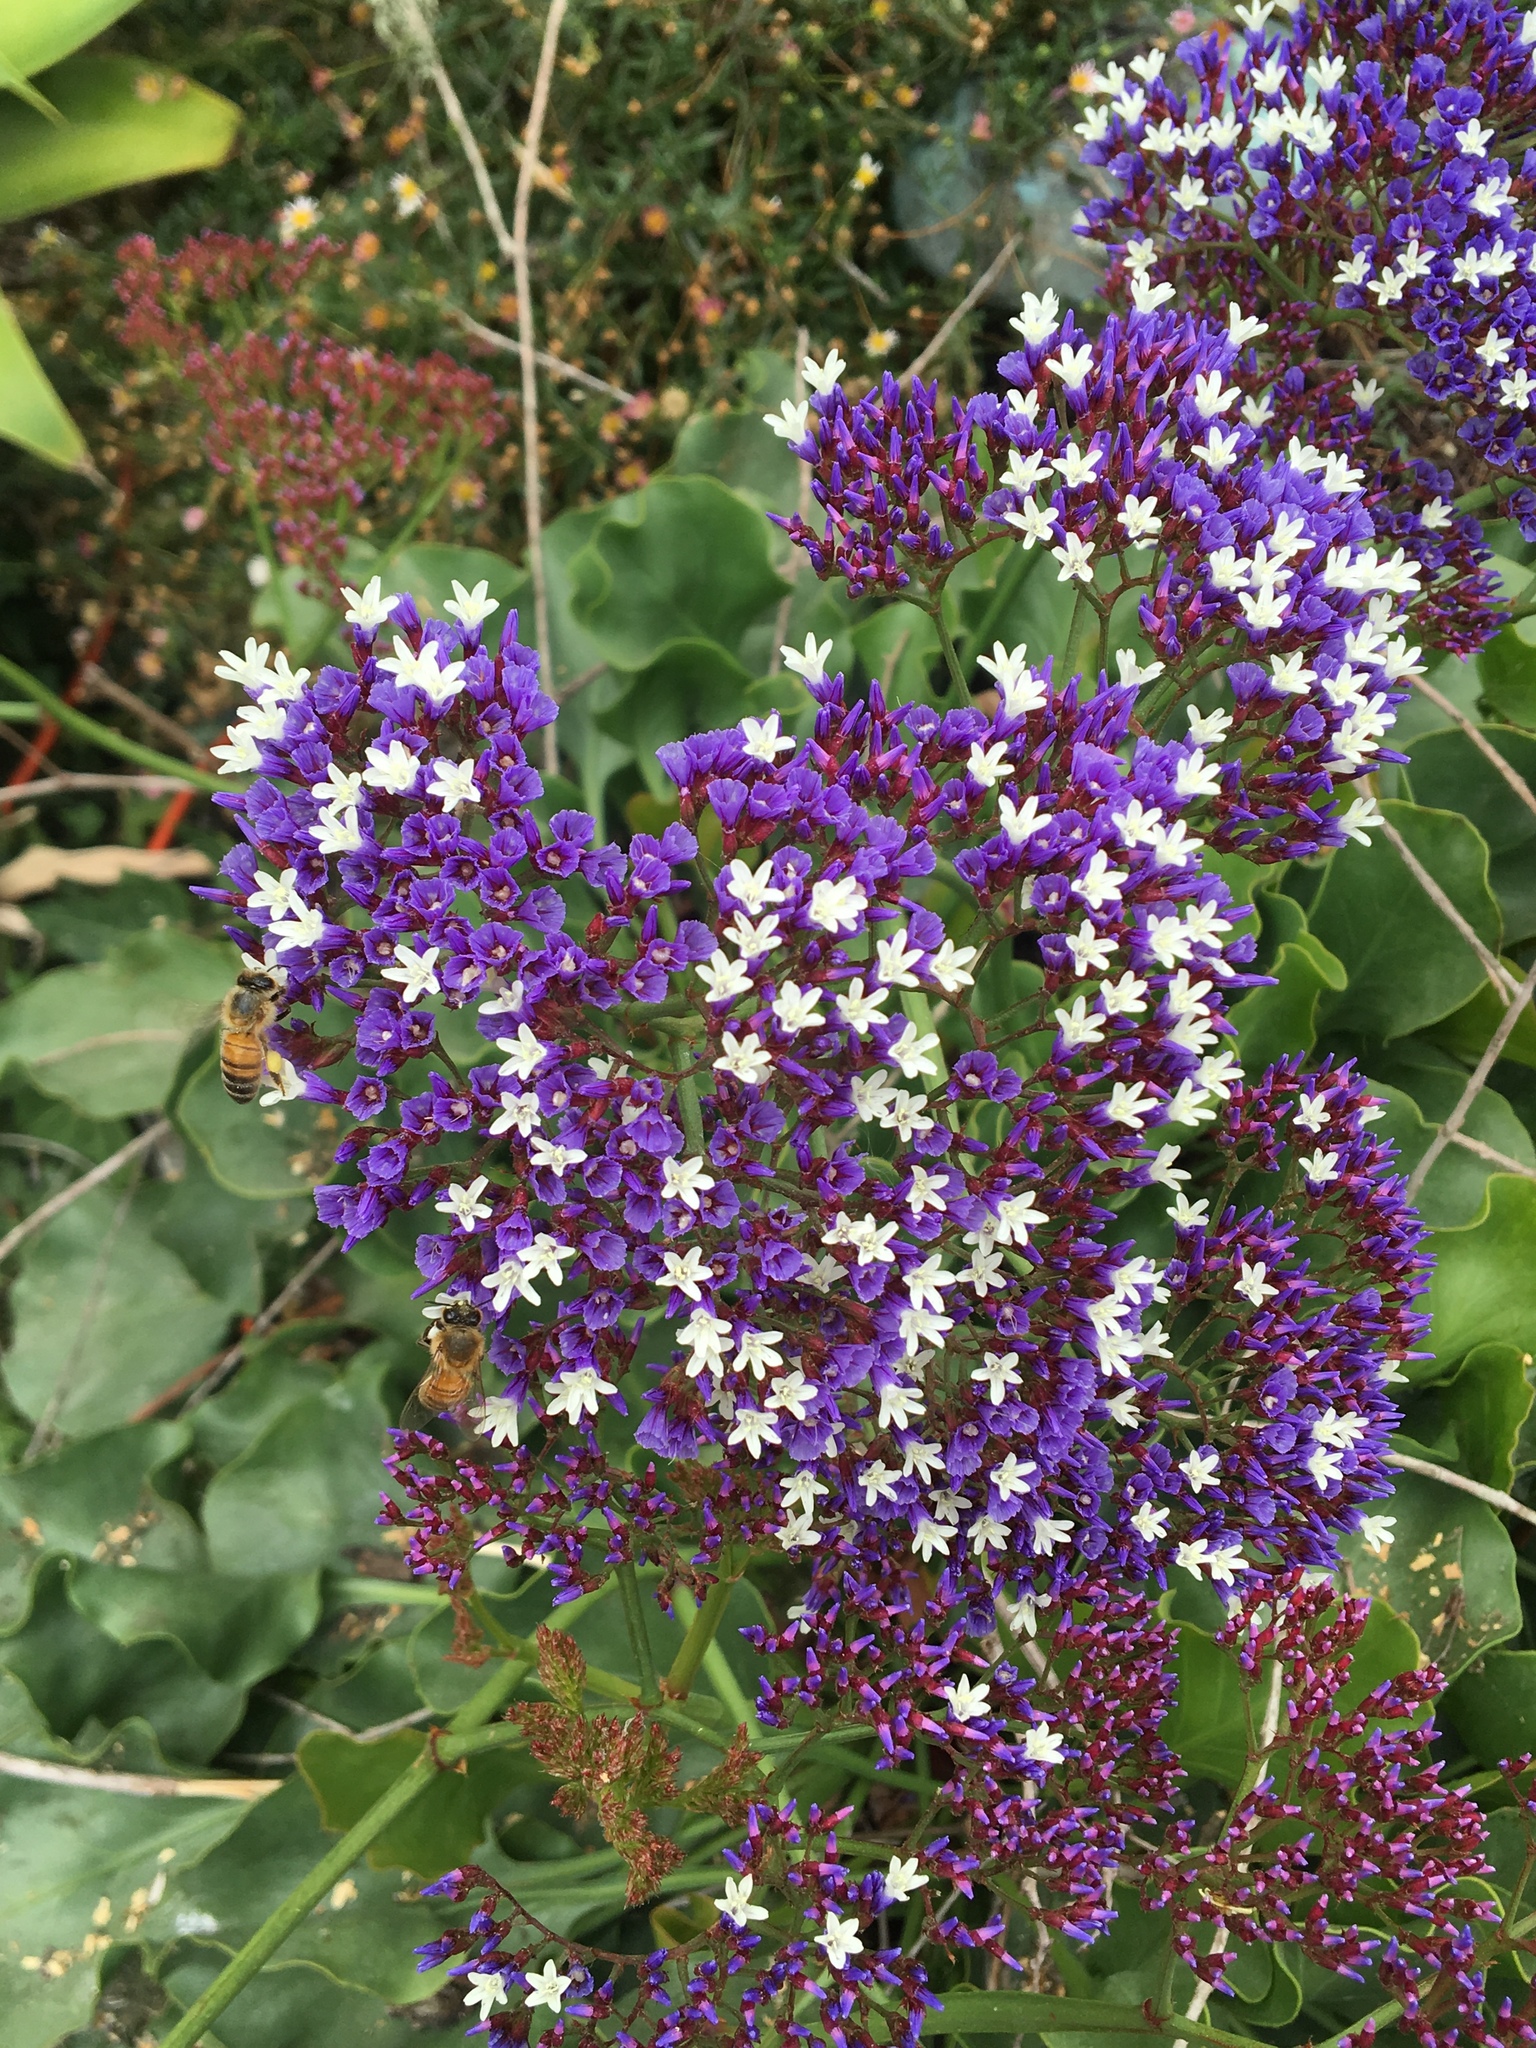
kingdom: Plantae
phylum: Tracheophyta
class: Magnoliopsida
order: Caryophyllales
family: Plumbaginaceae
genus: Limonium
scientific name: Limonium perezii
